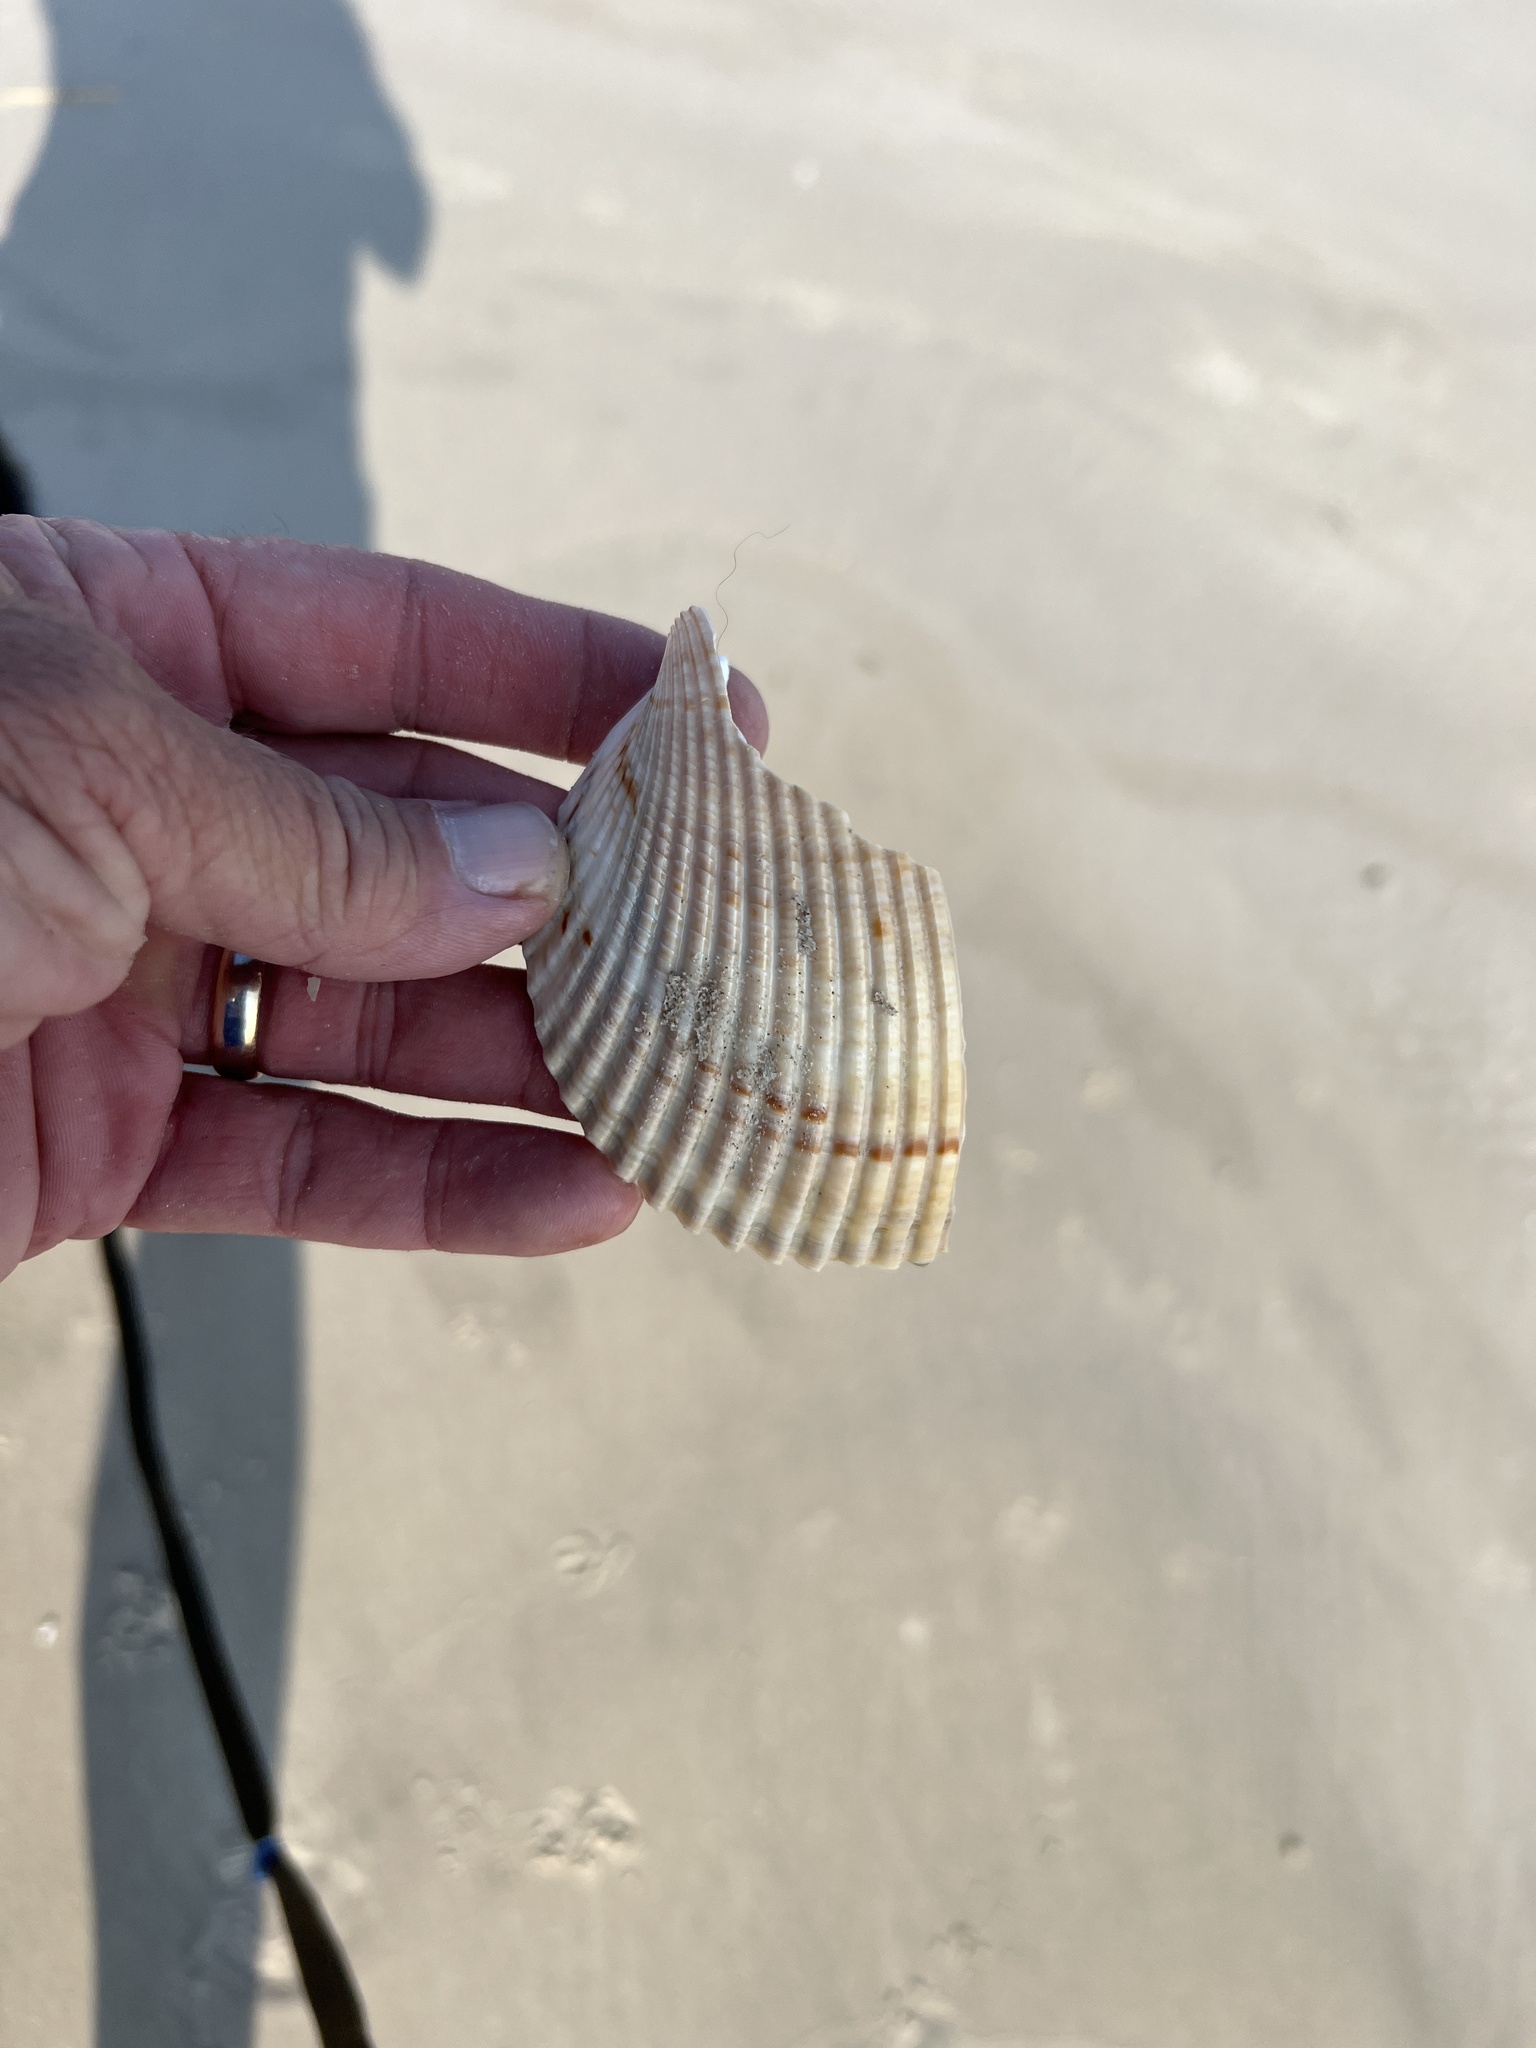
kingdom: Animalia
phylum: Mollusca
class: Bivalvia
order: Cardiida
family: Cardiidae
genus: Dinocardium
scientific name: Dinocardium robustum
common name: Atlantic giant cockle
